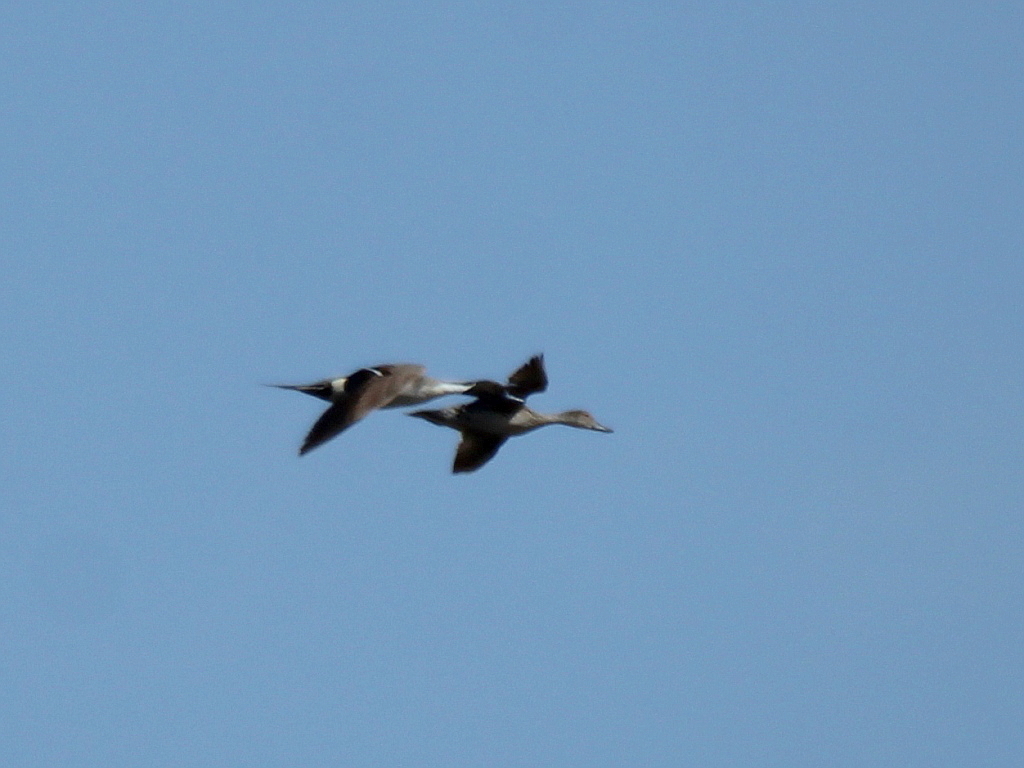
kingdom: Animalia
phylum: Chordata
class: Aves
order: Anseriformes
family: Anatidae
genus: Anas
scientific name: Anas acuta
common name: Northern pintail
